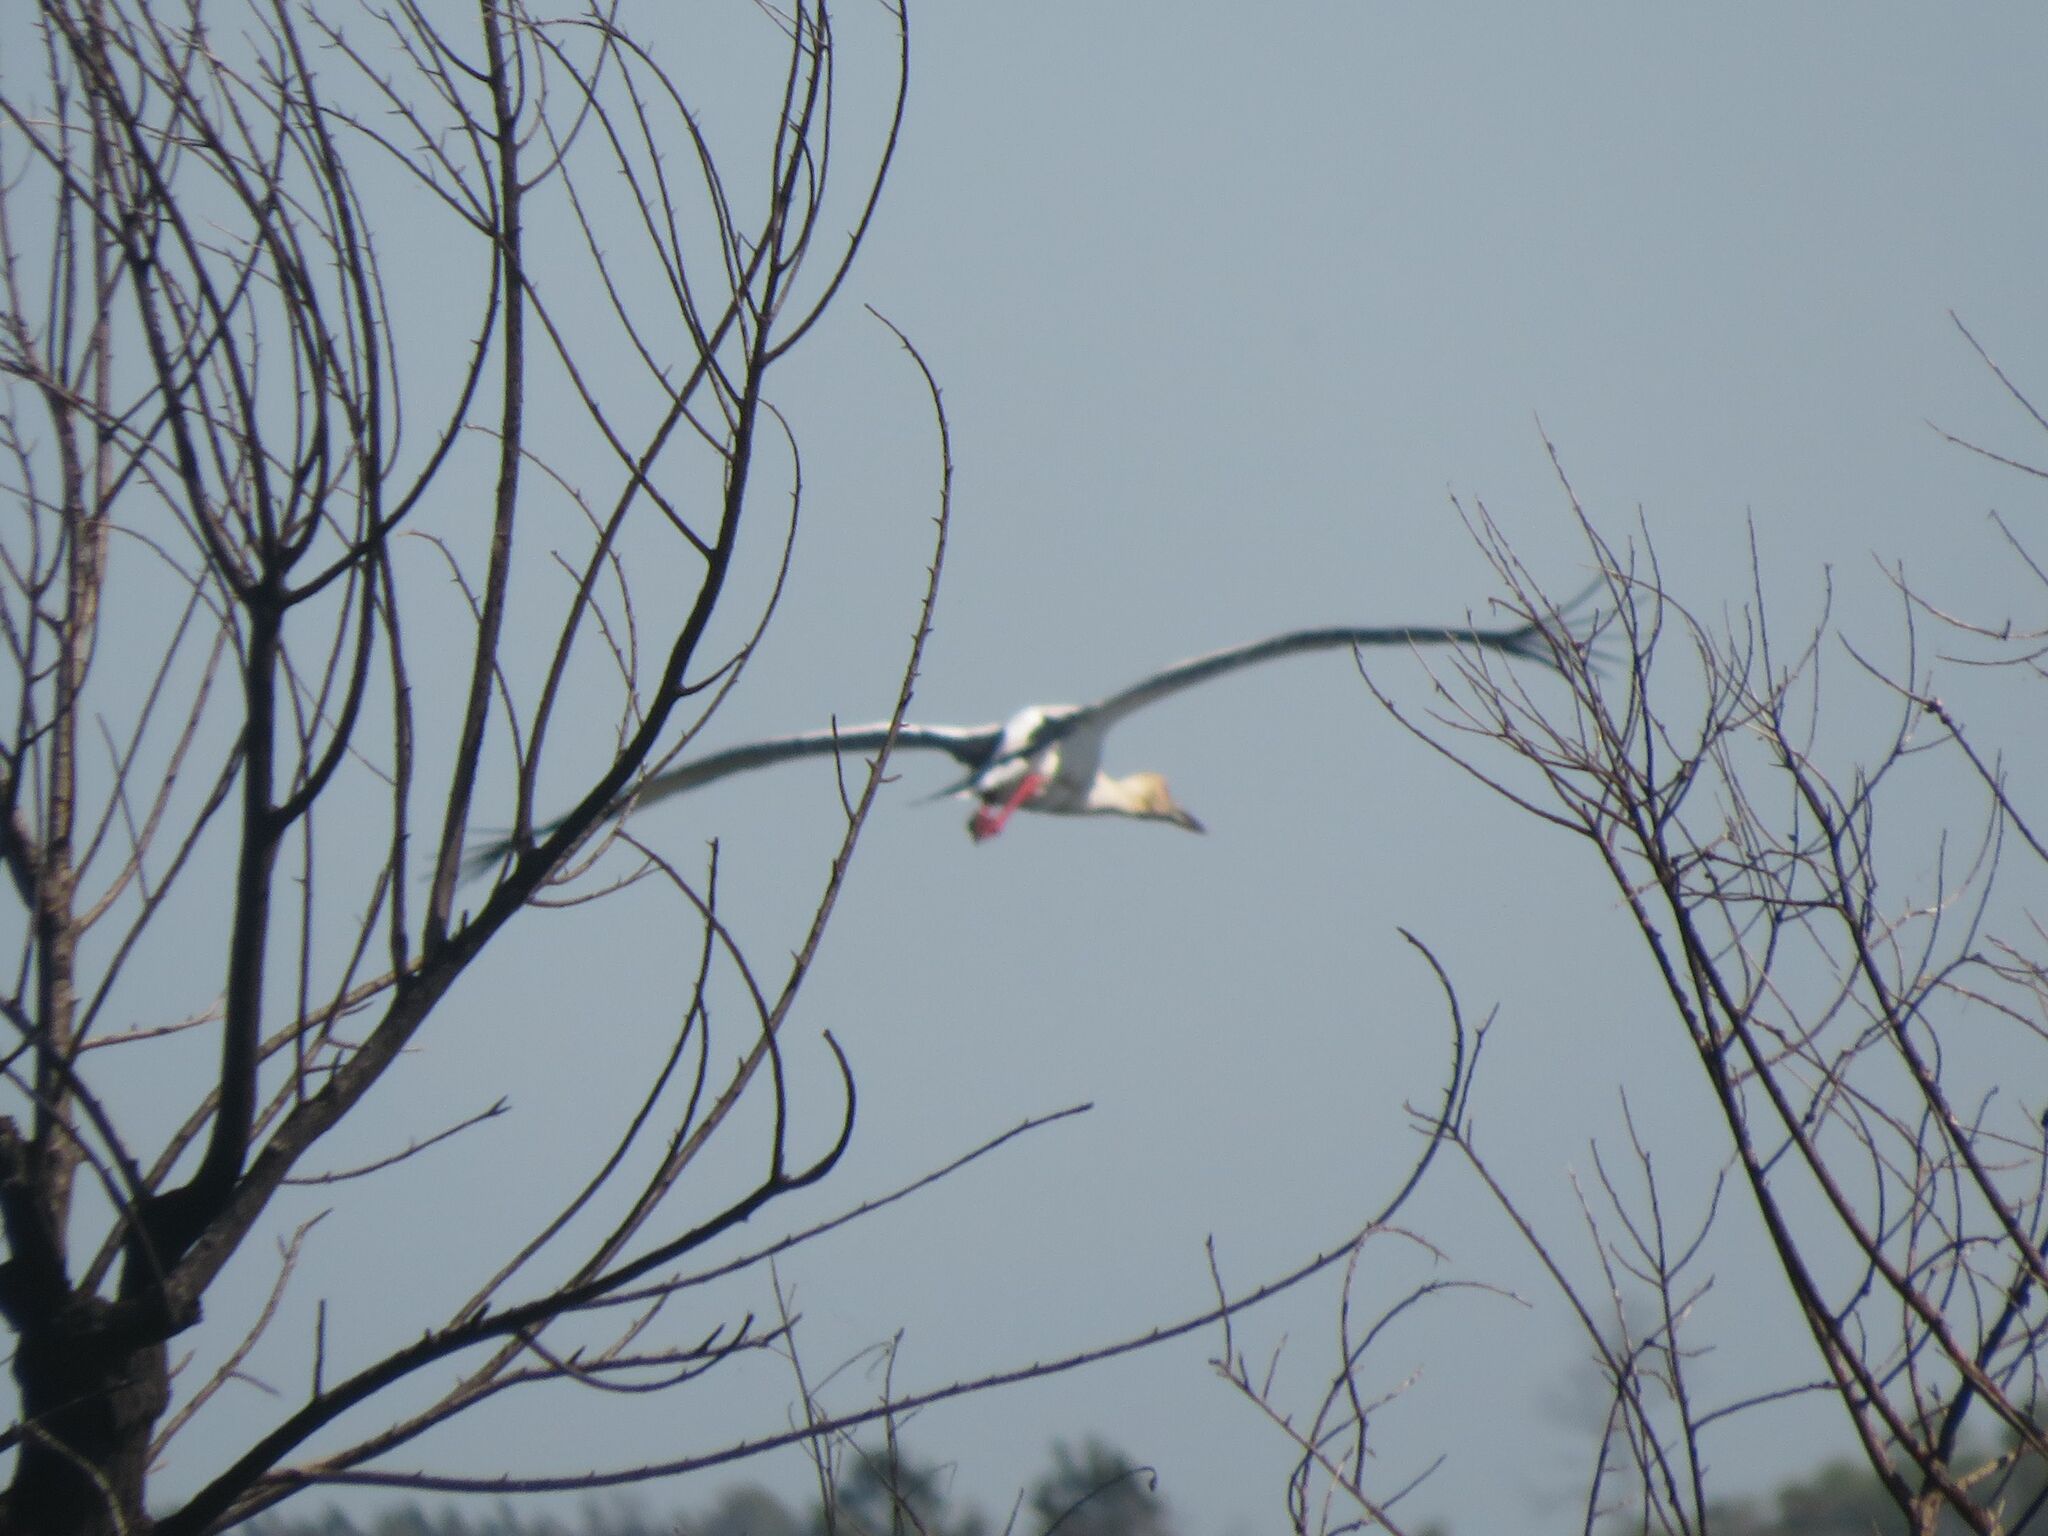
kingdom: Animalia
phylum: Chordata
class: Aves
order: Ciconiiformes
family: Ciconiidae
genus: Ciconia
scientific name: Ciconia maguari
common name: Maguari stork
